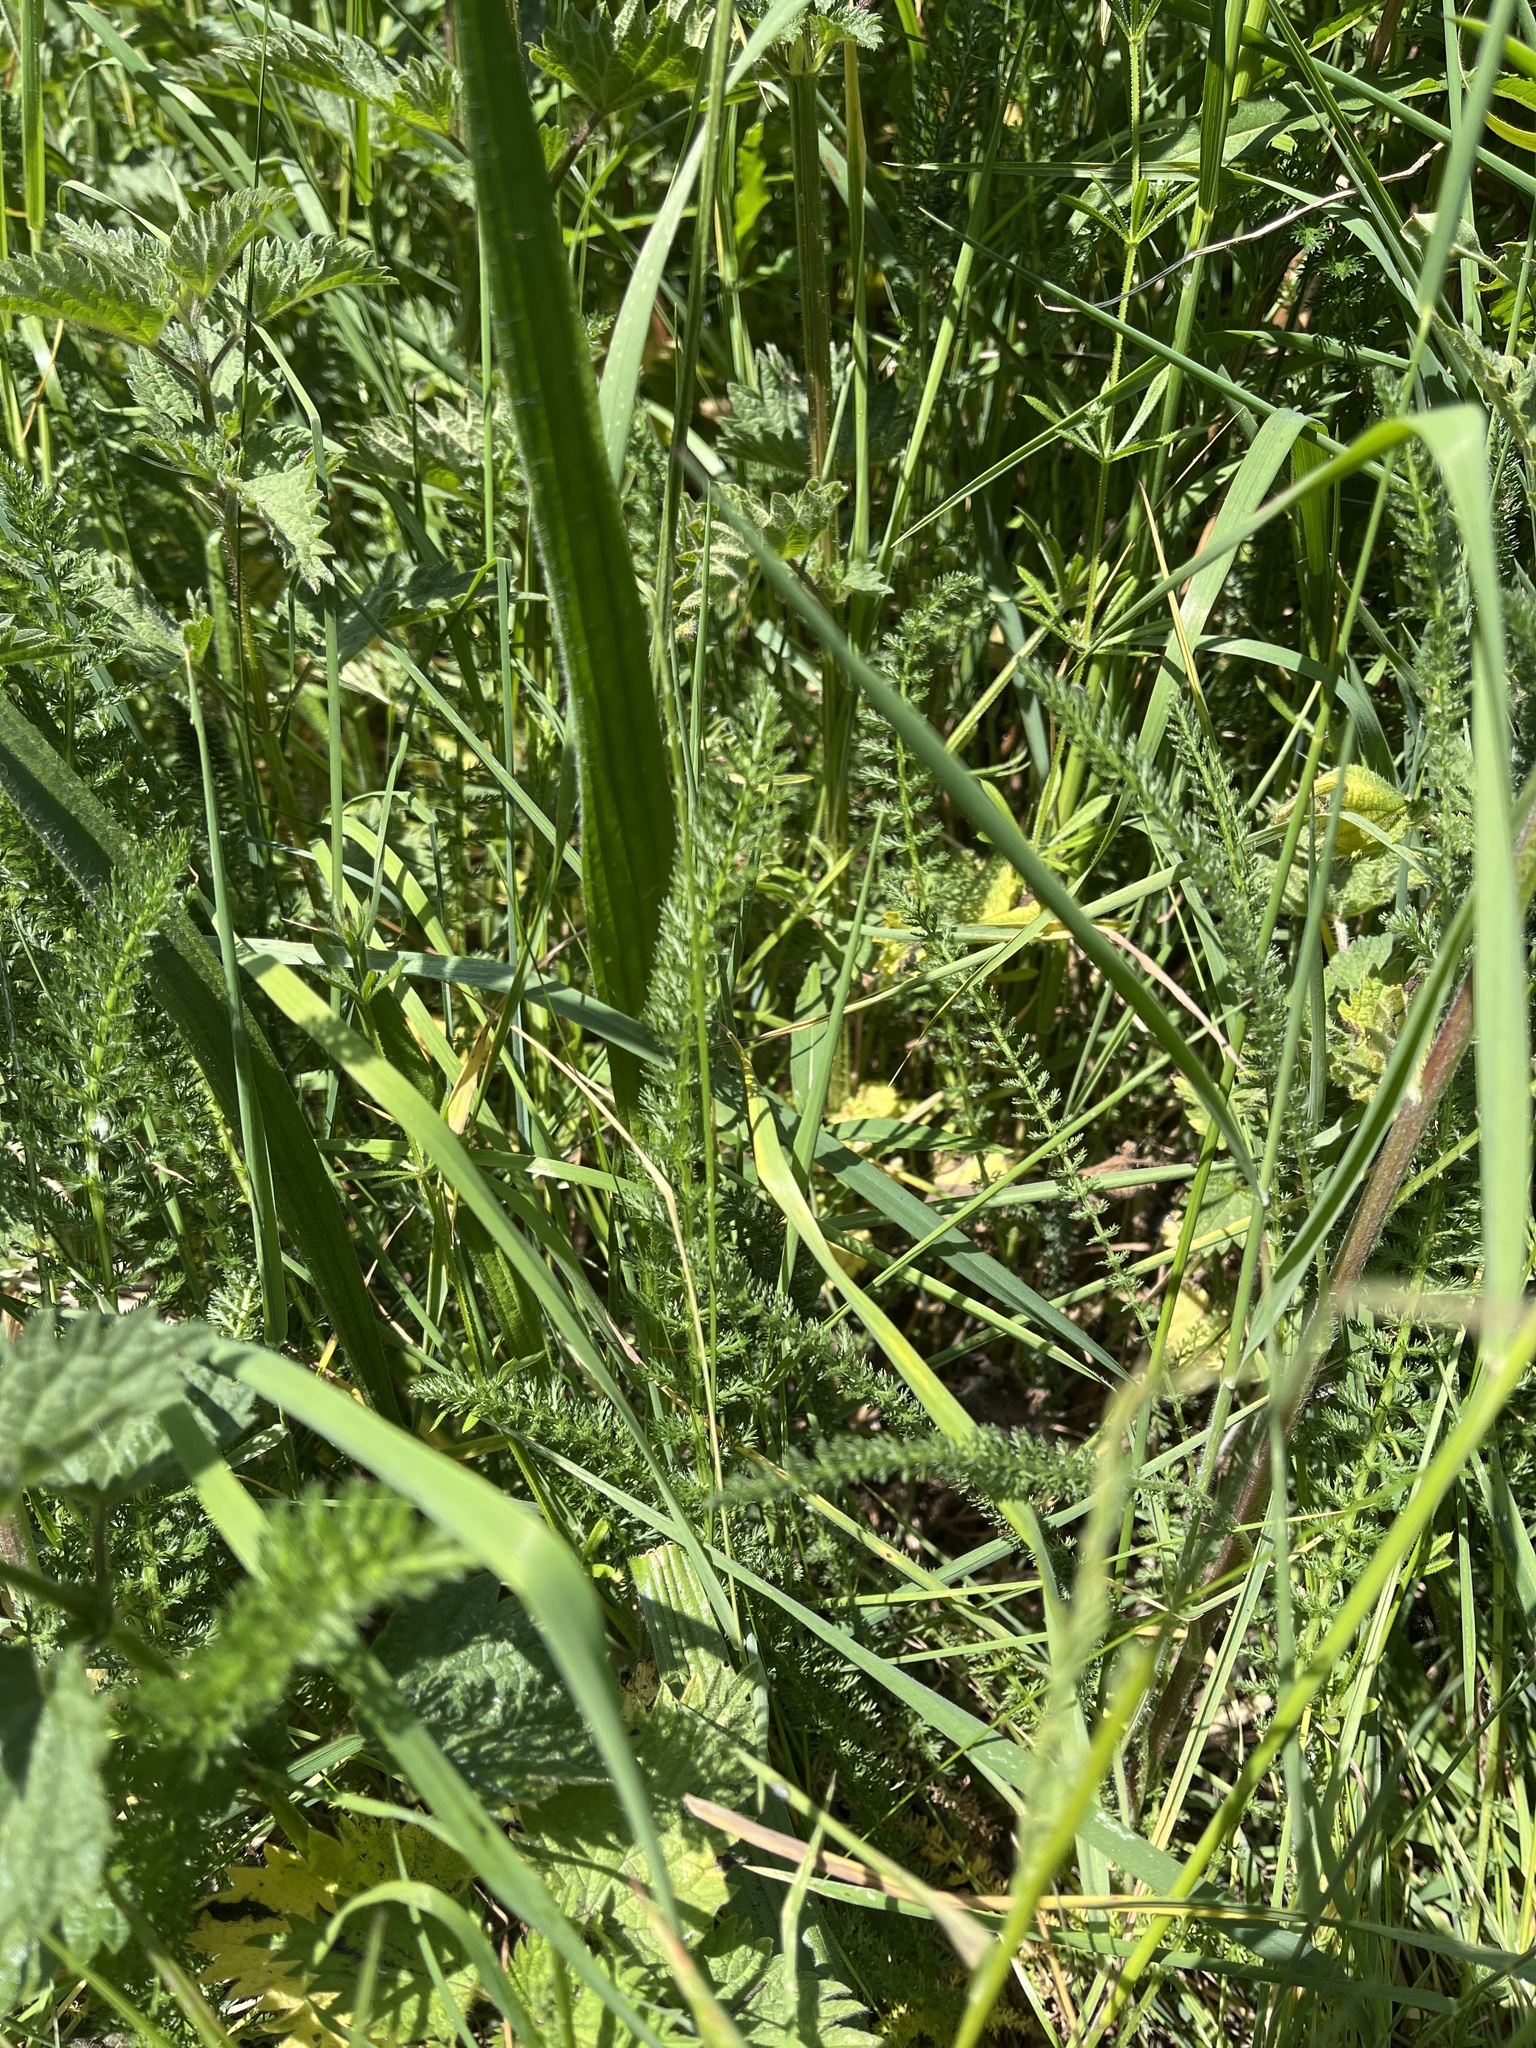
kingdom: Plantae
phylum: Tracheophyta
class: Magnoliopsida
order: Asterales
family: Asteraceae
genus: Achillea
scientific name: Achillea millefolium
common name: Yarrow
